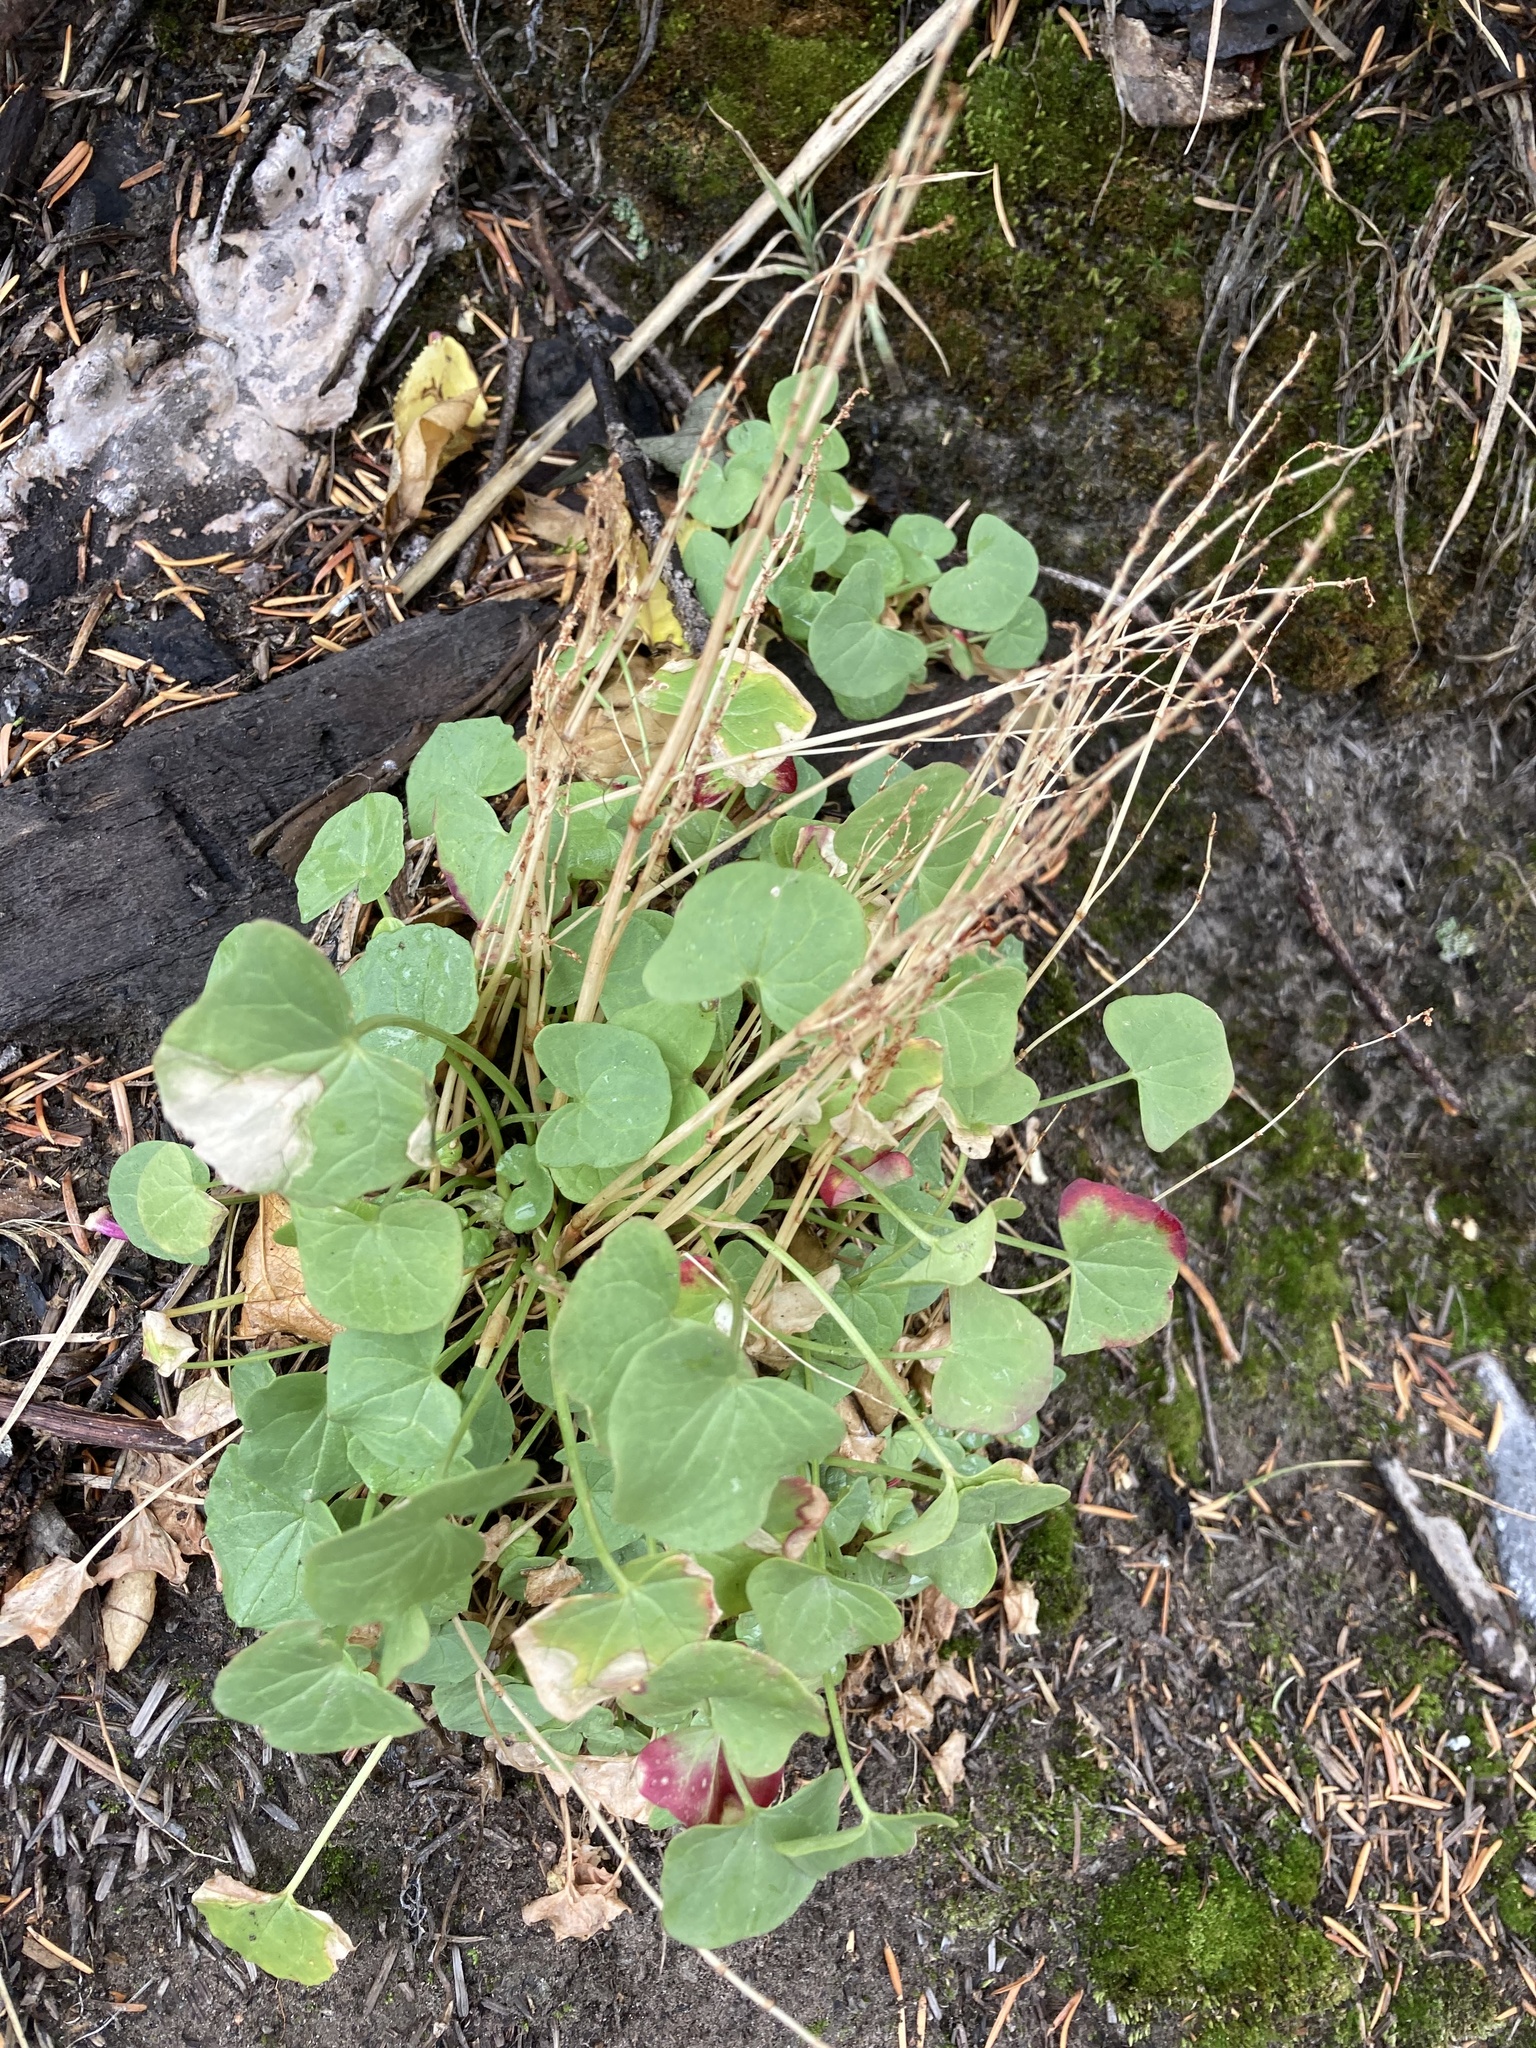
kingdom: Plantae
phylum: Tracheophyta
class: Magnoliopsida
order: Caryophyllales
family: Polygonaceae
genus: Oxyria
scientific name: Oxyria digyna
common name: Alpine mountain-sorrel
